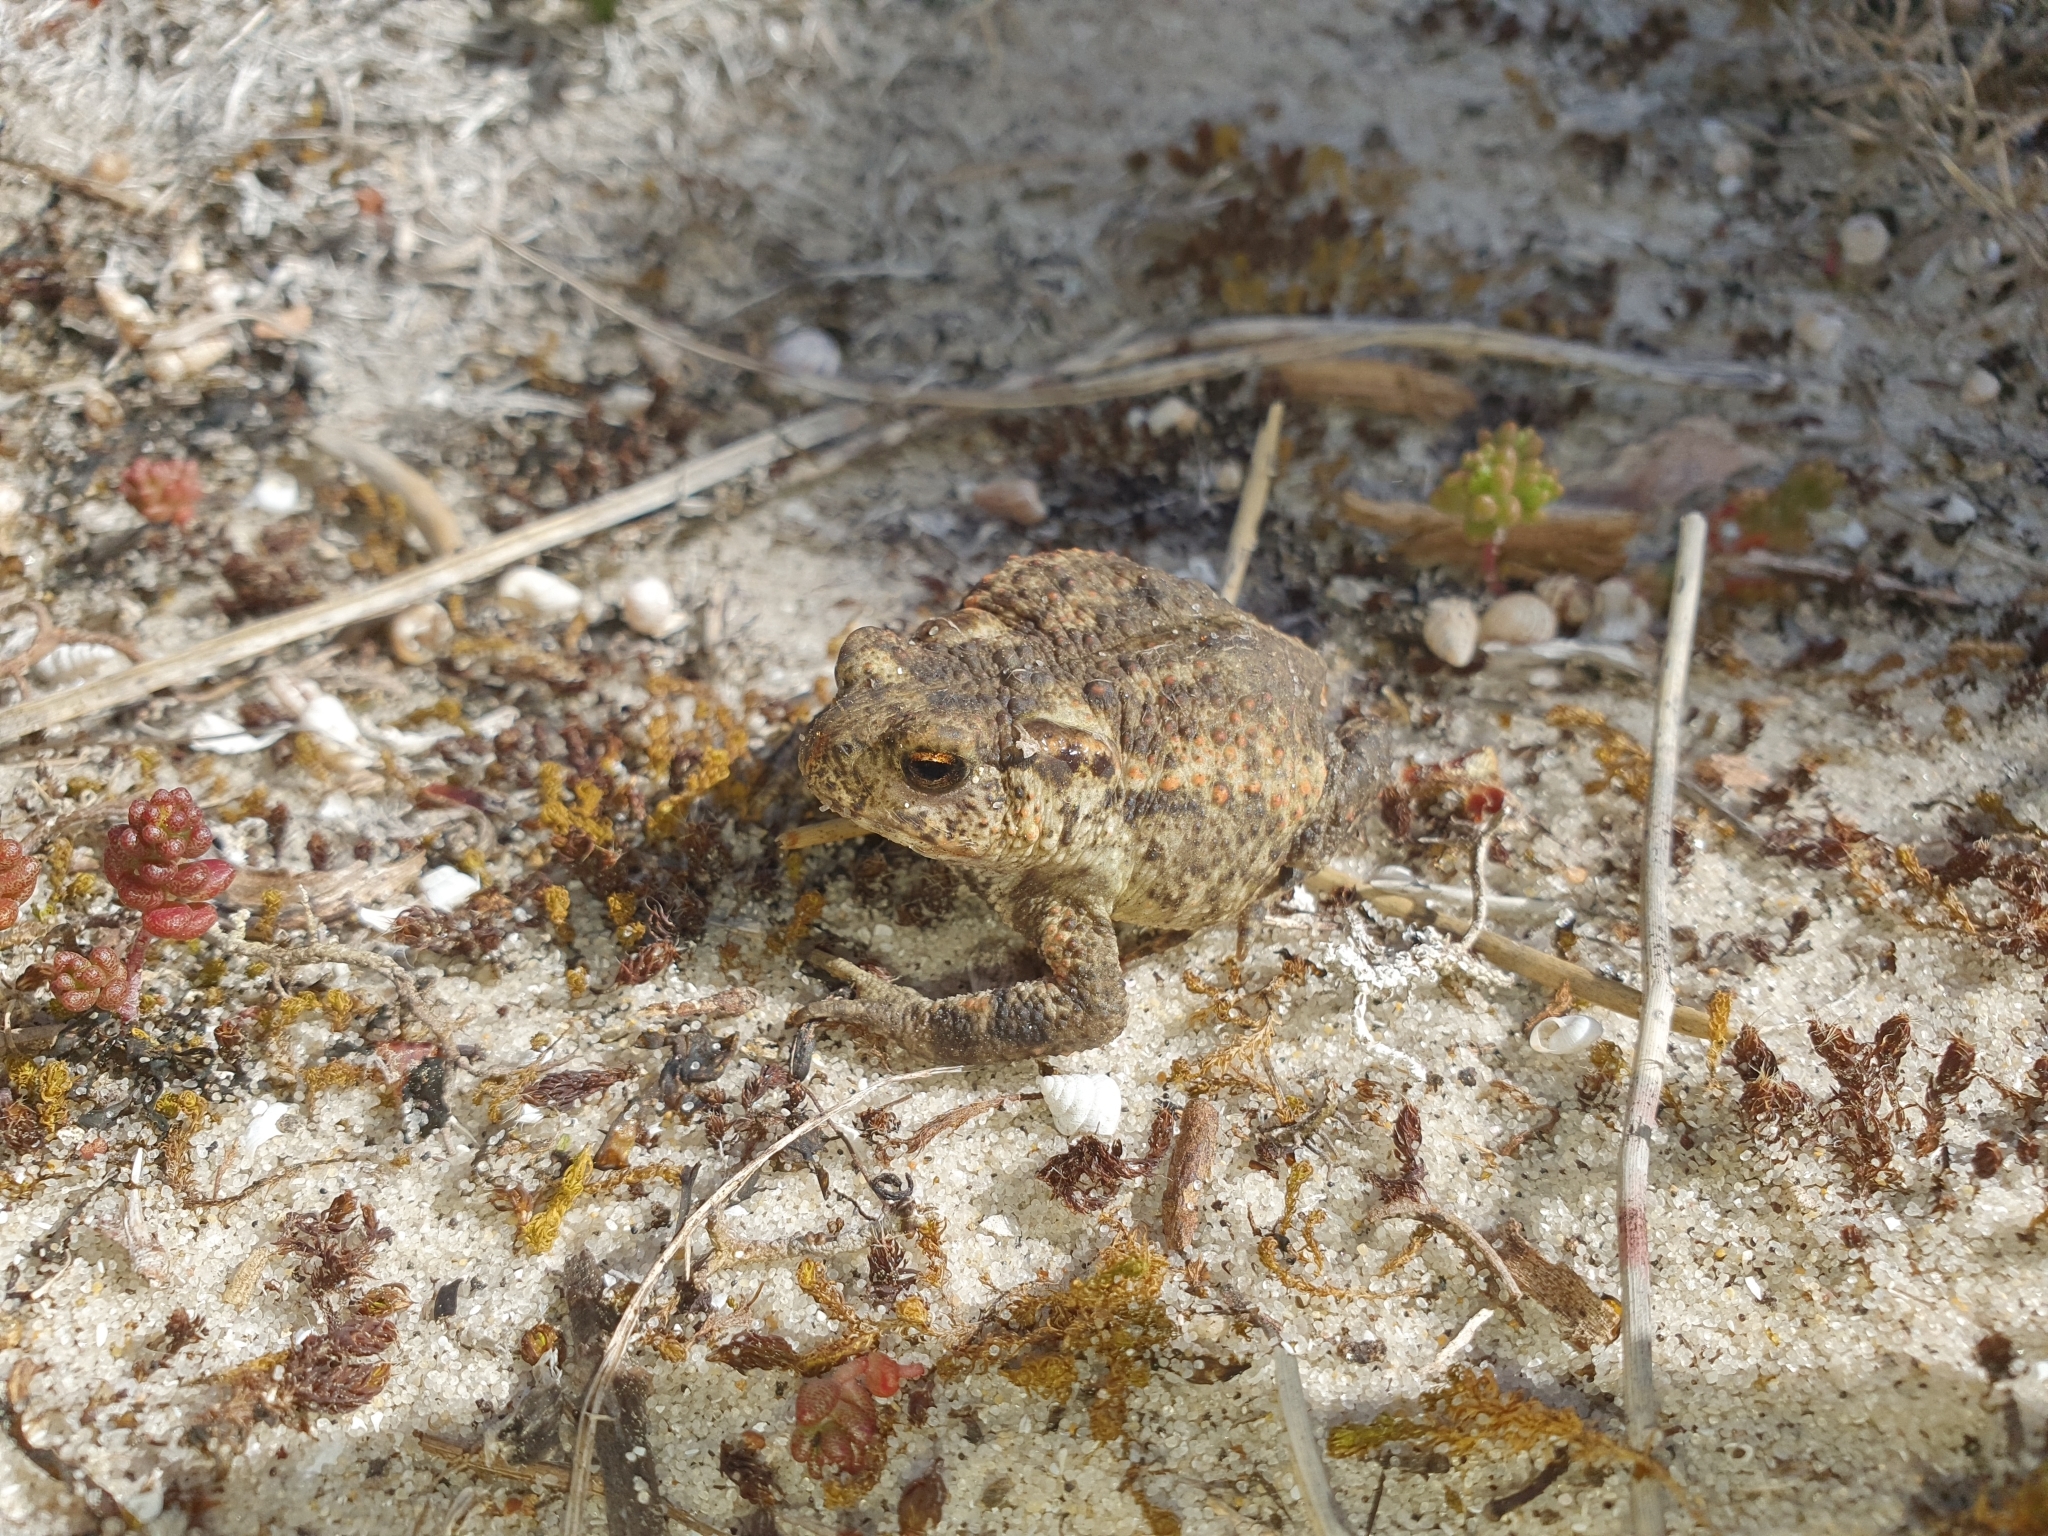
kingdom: Animalia
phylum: Chordata
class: Amphibia
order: Anura
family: Bufonidae
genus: Bufo
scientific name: Bufo spinosus
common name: Western common toad
